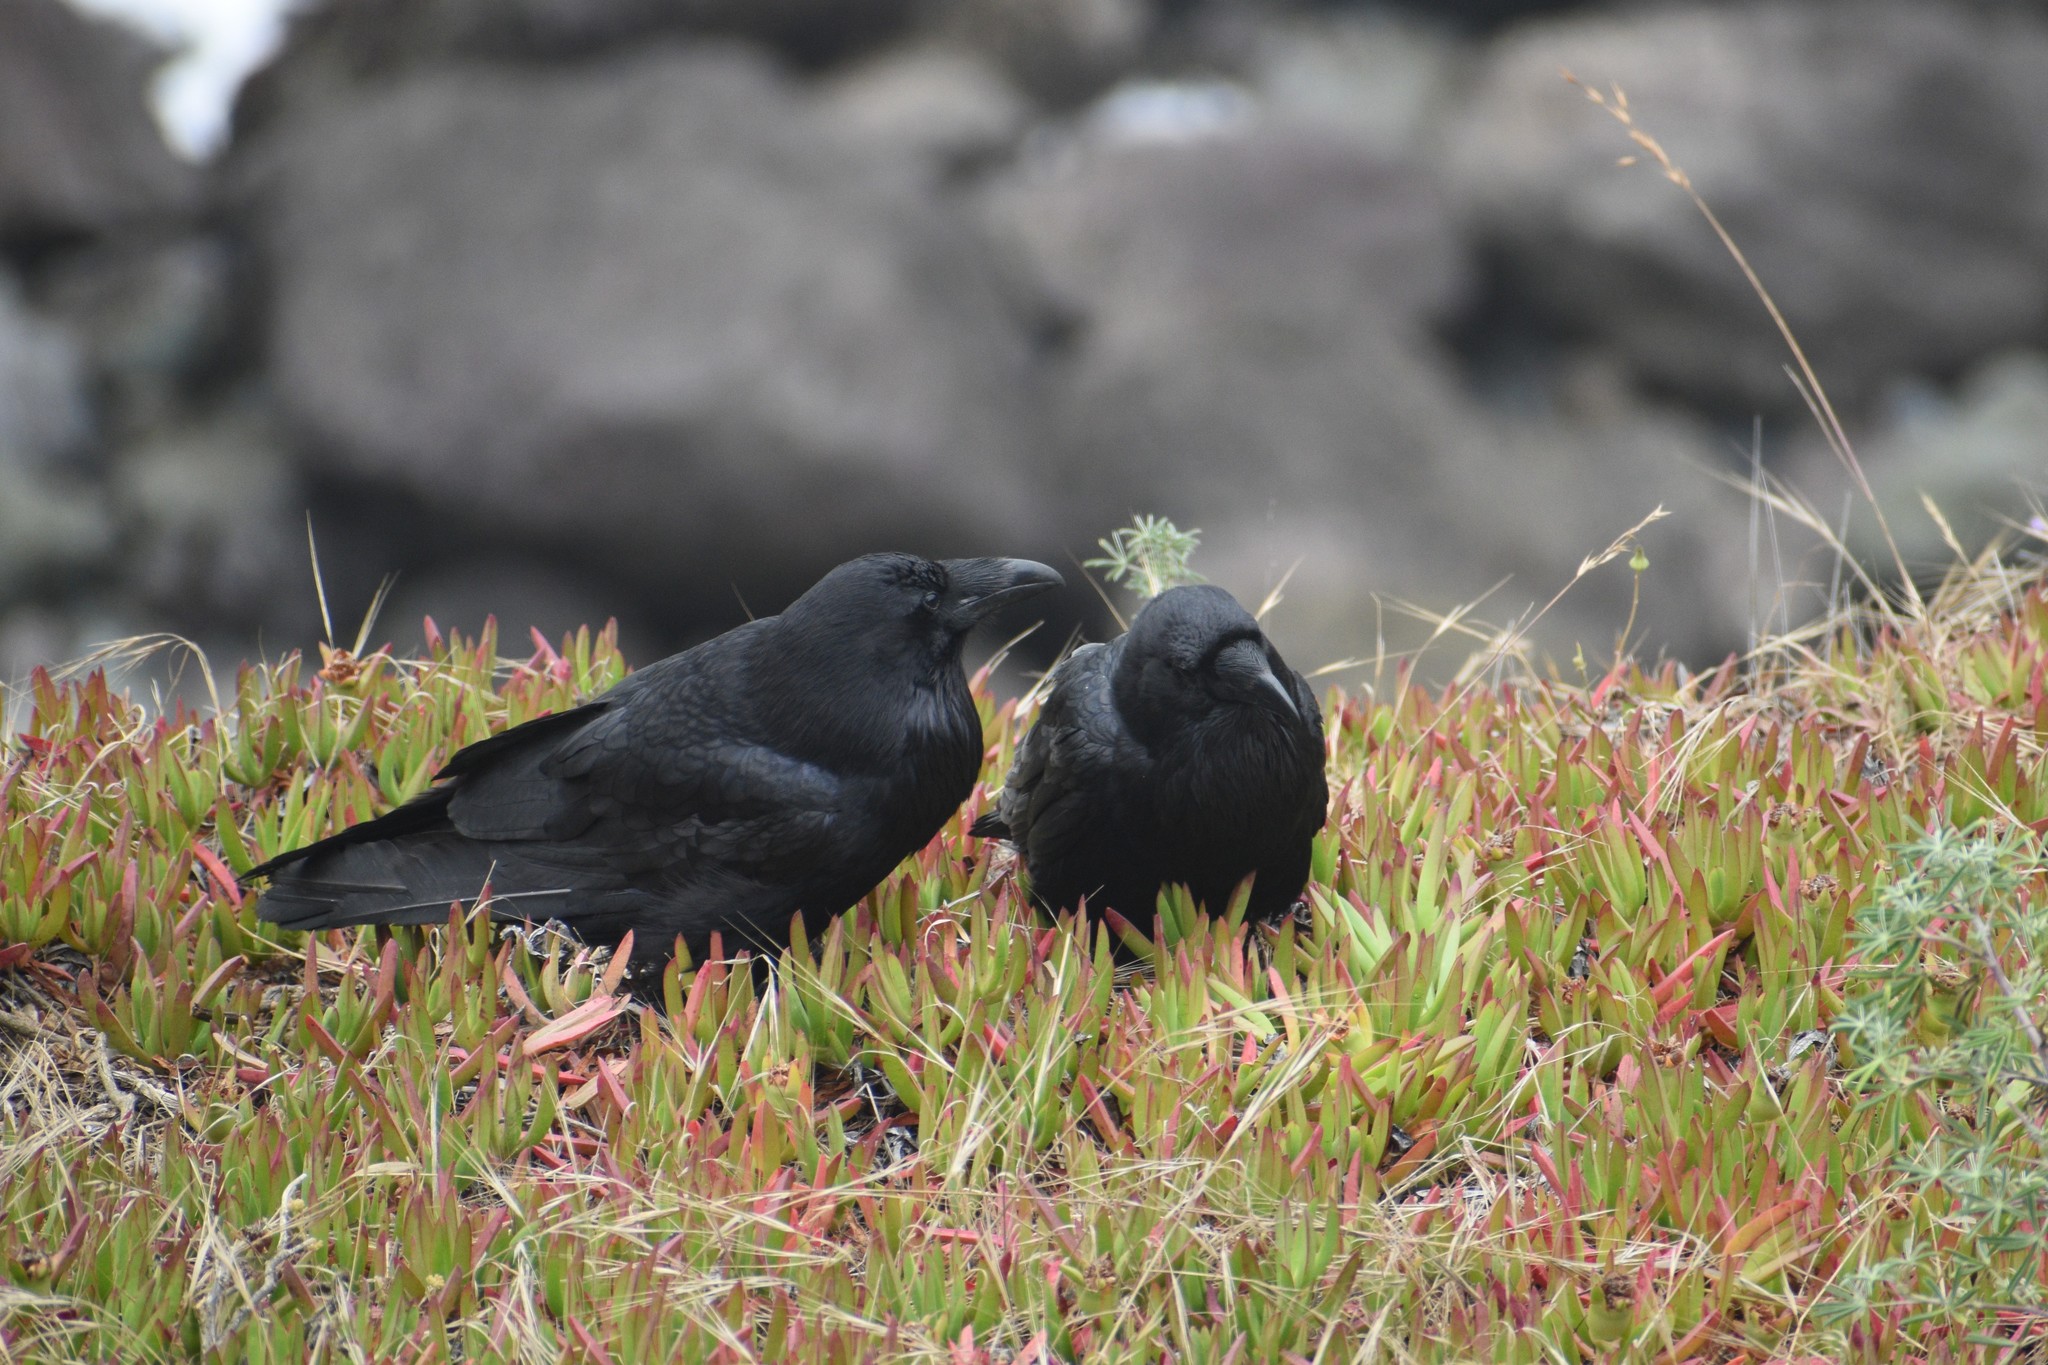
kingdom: Animalia
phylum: Chordata
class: Aves
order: Passeriformes
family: Corvidae
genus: Corvus
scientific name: Corvus corax
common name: Common raven
